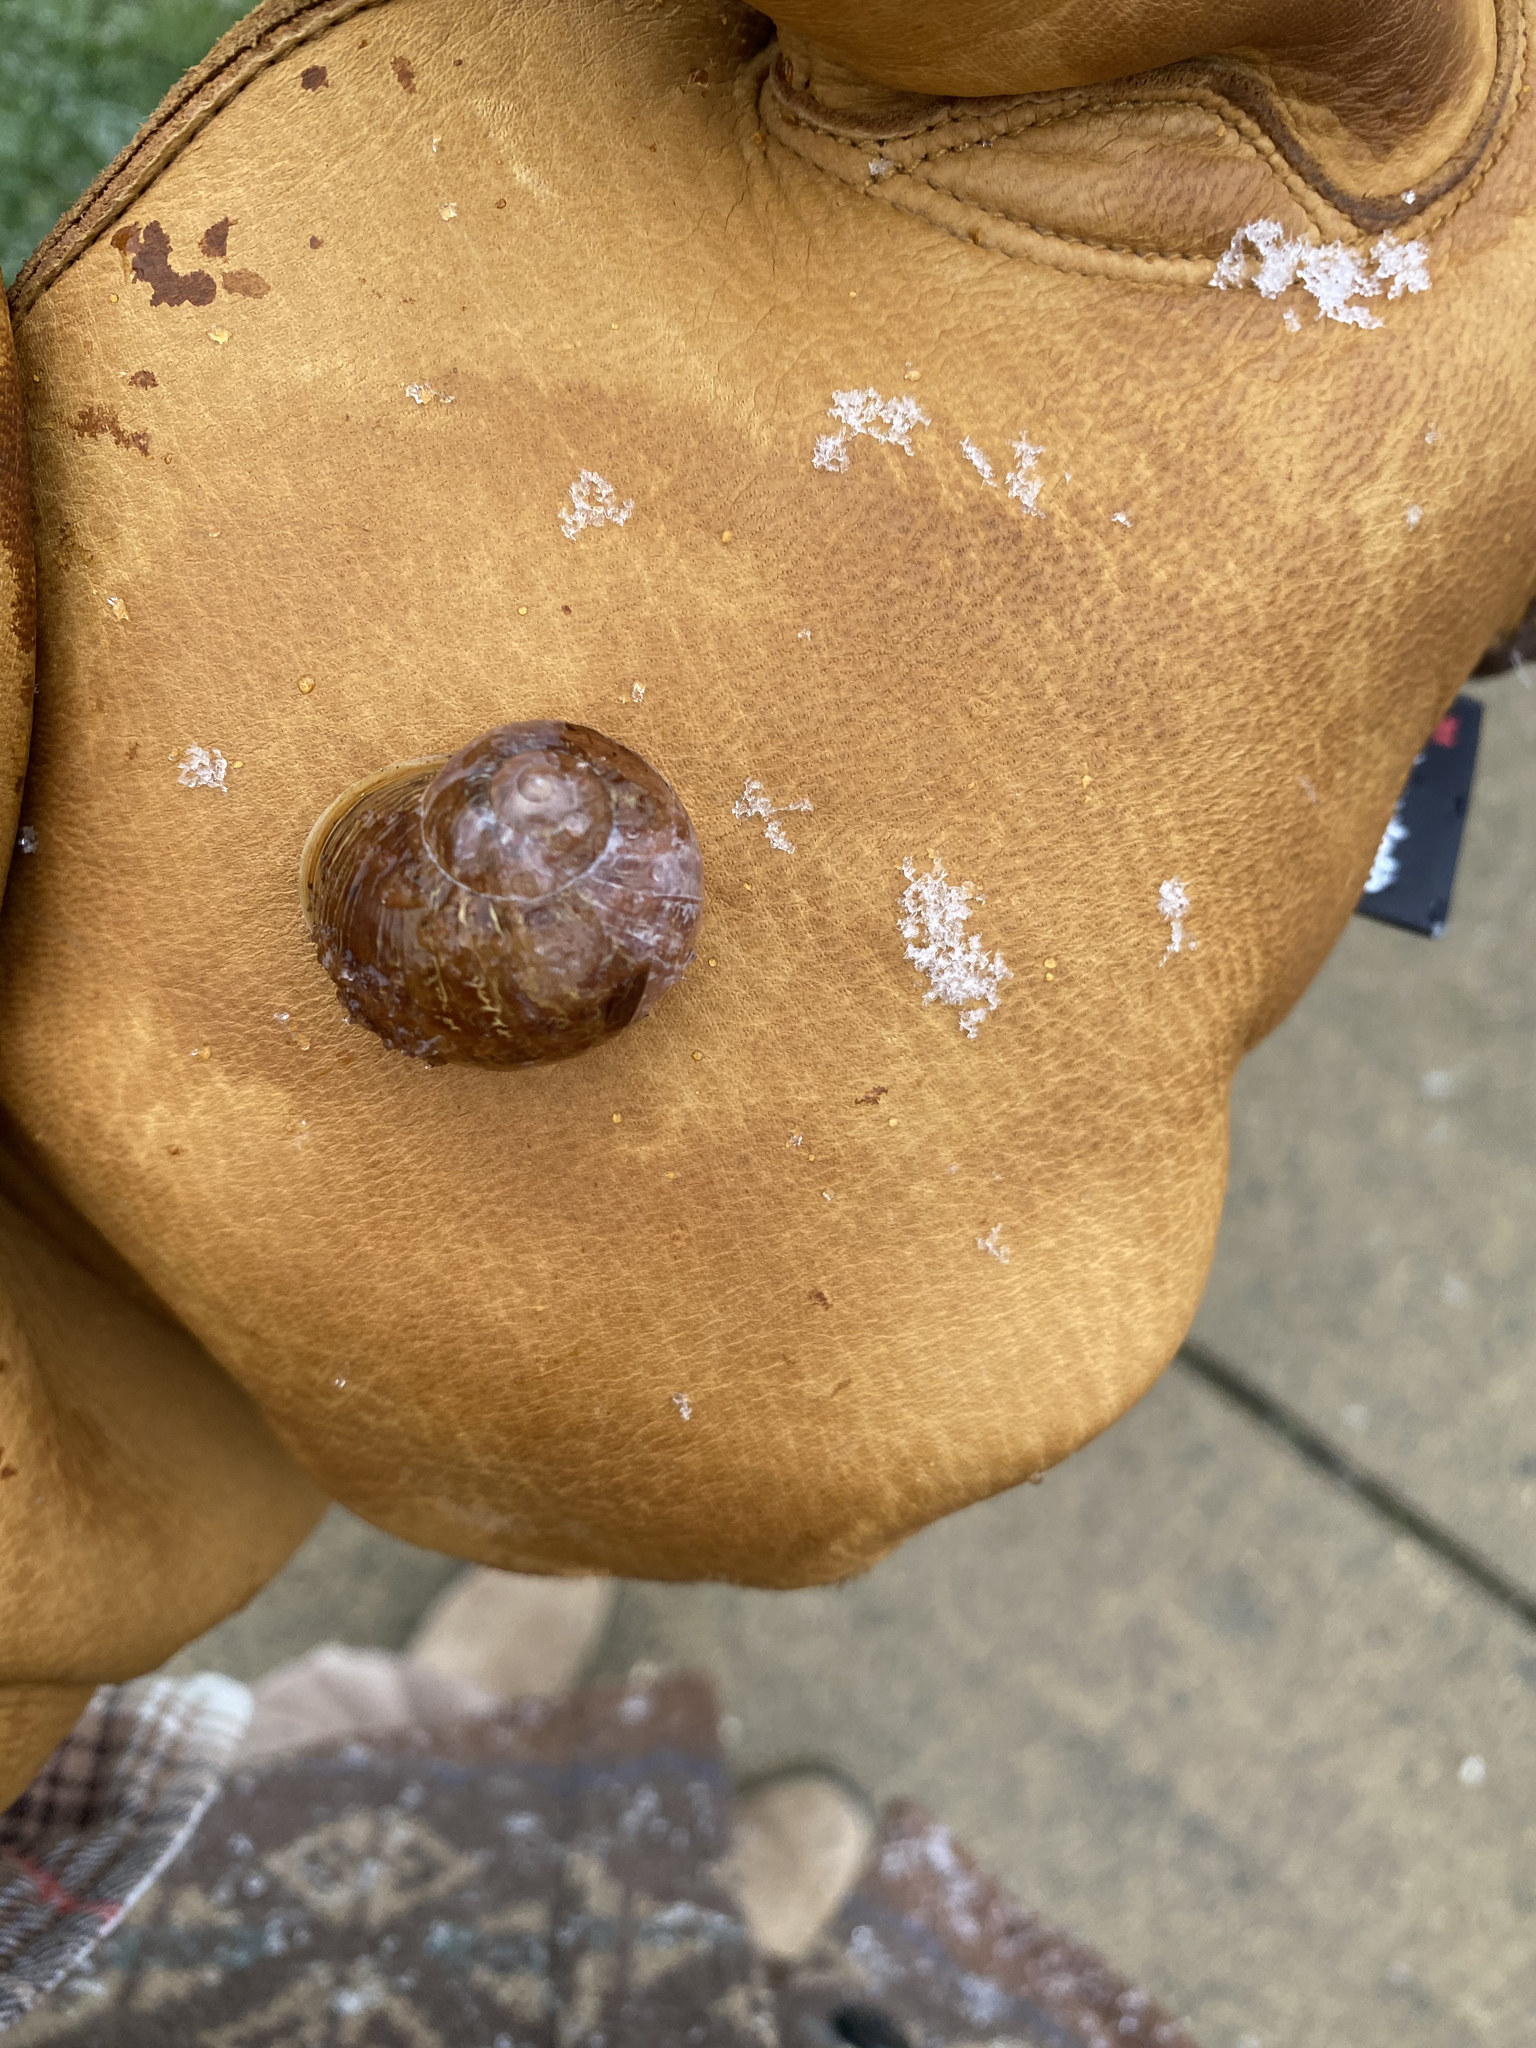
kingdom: Animalia
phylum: Mollusca
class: Gastropoda
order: Stylommatophora
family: Helicidae
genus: Cornu
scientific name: Cornu aspersum
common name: Brown garden snail
